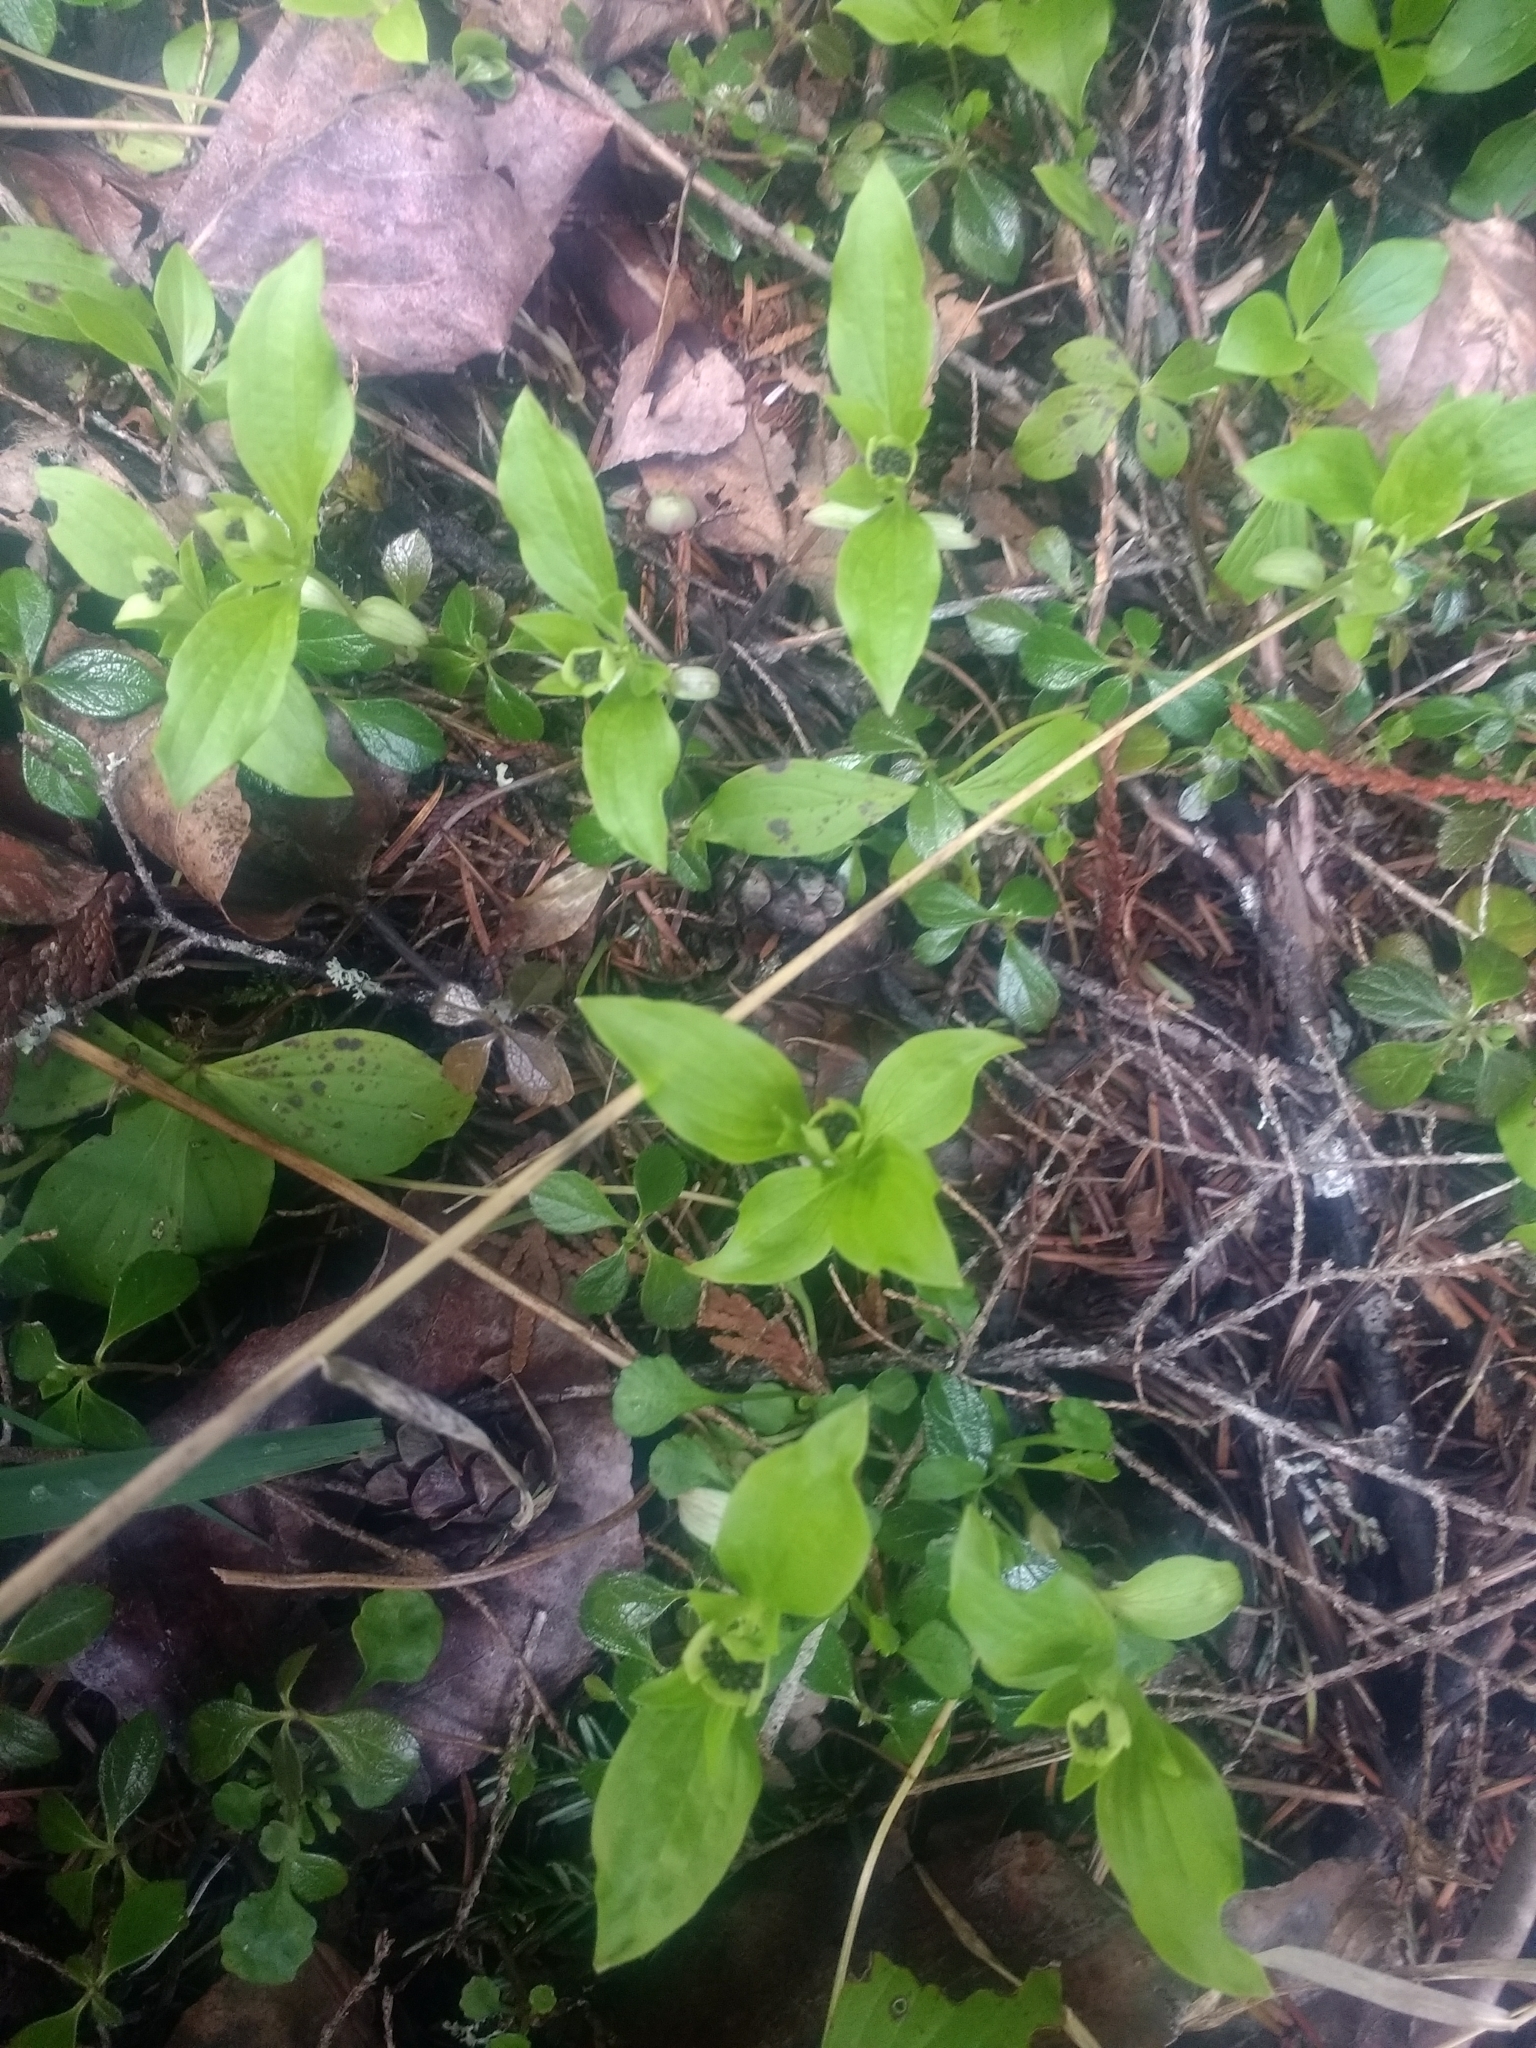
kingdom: Plantae
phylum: Tracheophyta
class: Magnoliopsida
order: Cornales
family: Cornaceae
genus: Cornus
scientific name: Cornus unalaschkensis
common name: Alaska bunchberry
